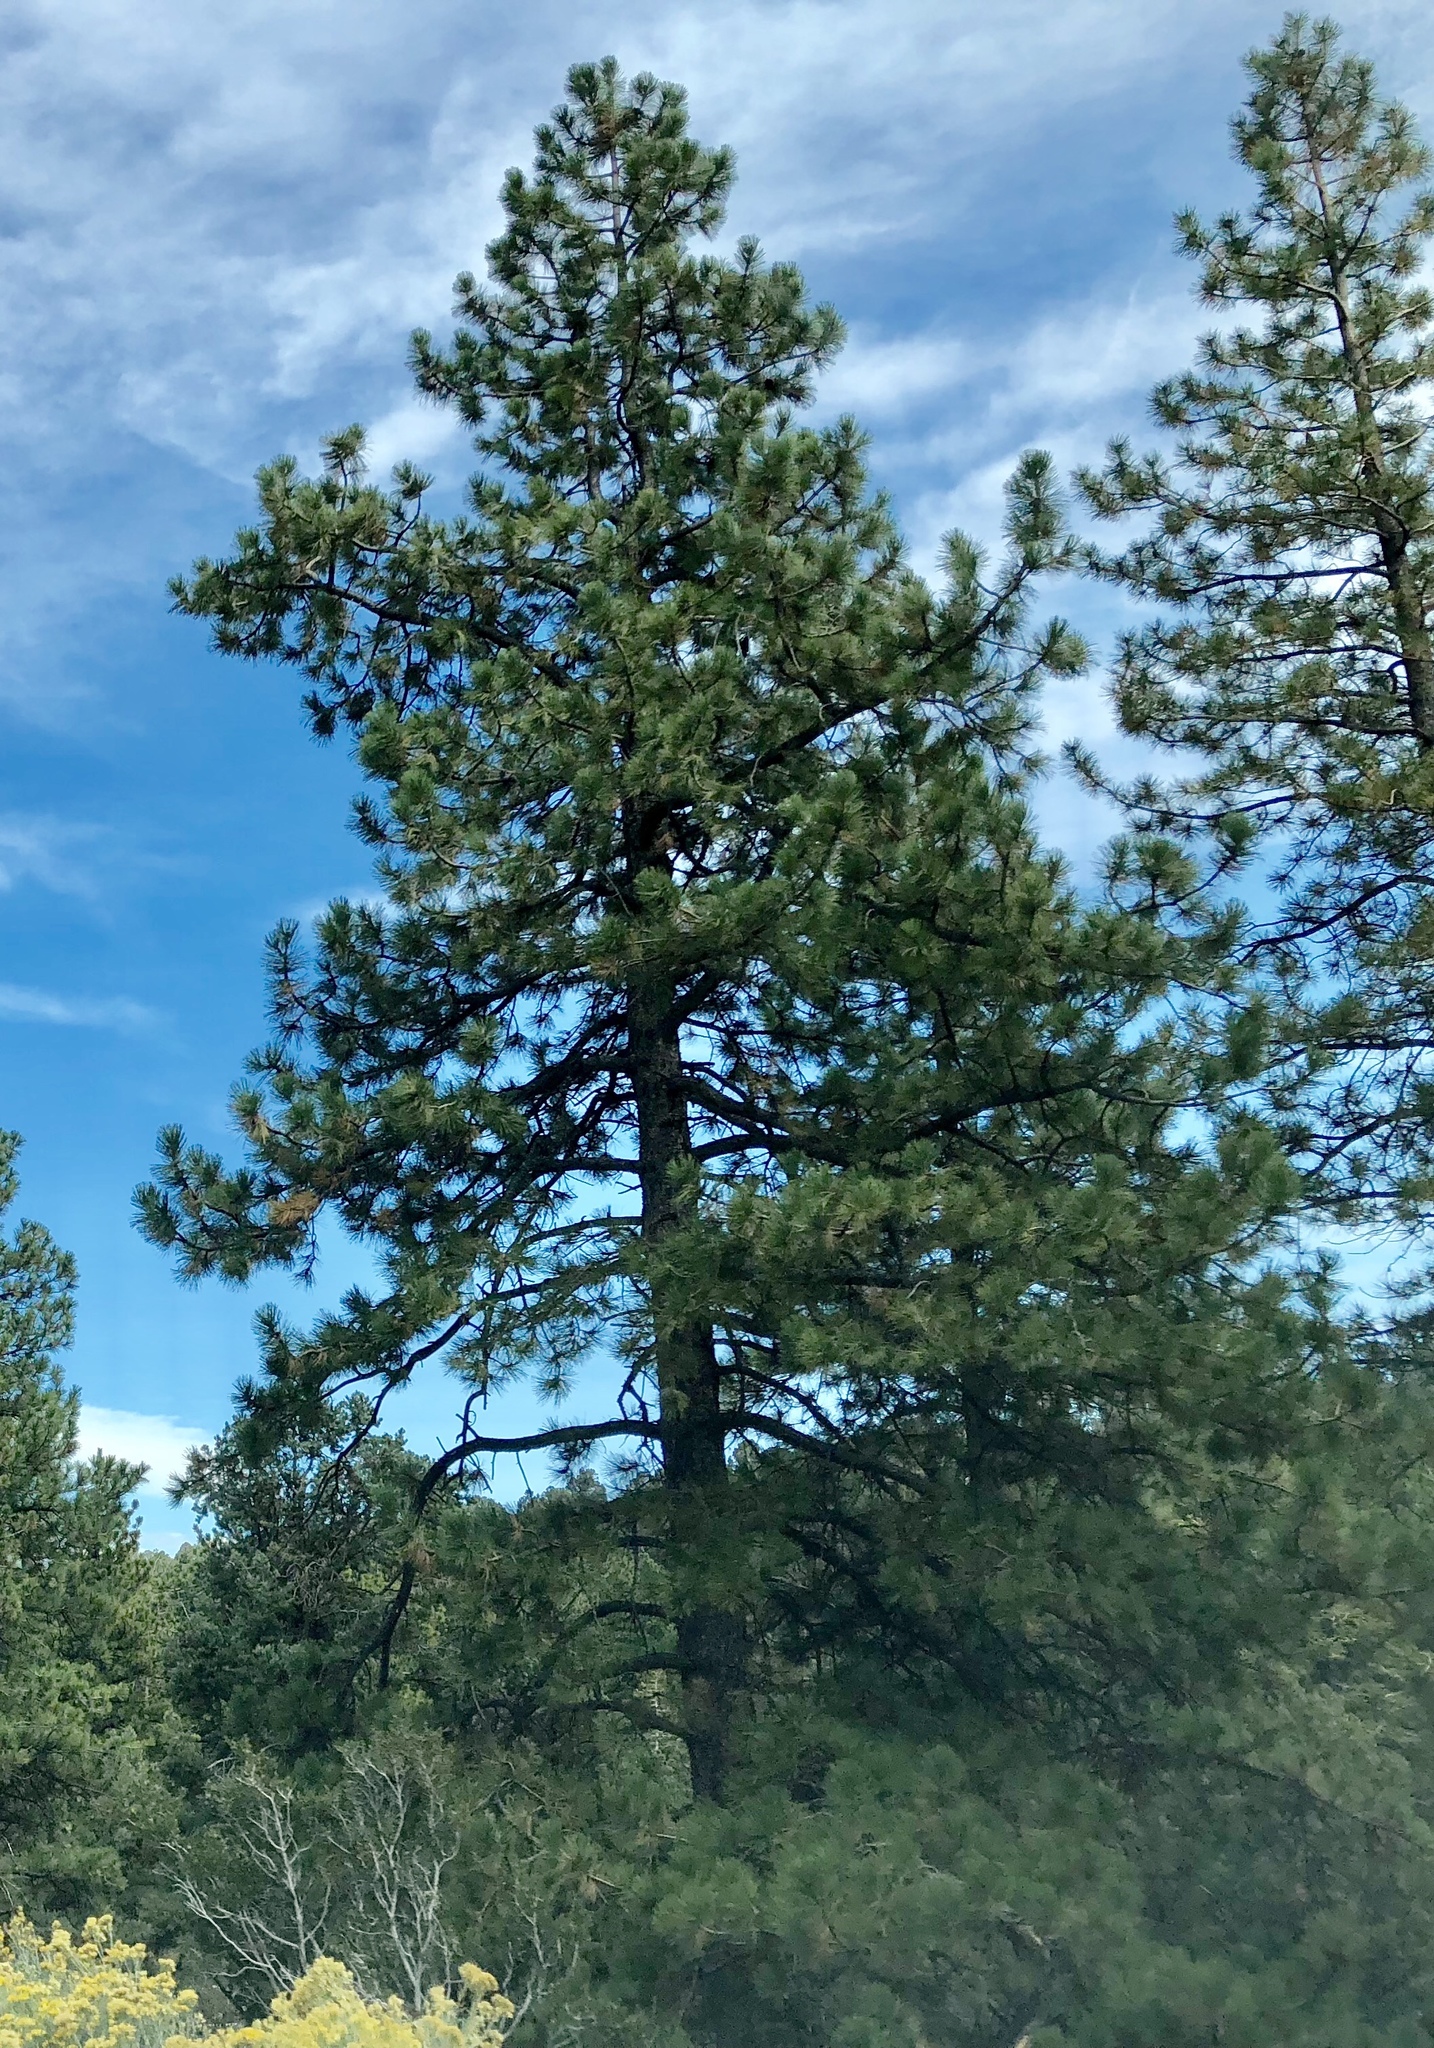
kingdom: Plantae
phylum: Tracheophyta
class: Pinopsida
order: Pinales
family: Pinaceae
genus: Pinus
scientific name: Pinus ponderosa
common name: Western yellow-pine
